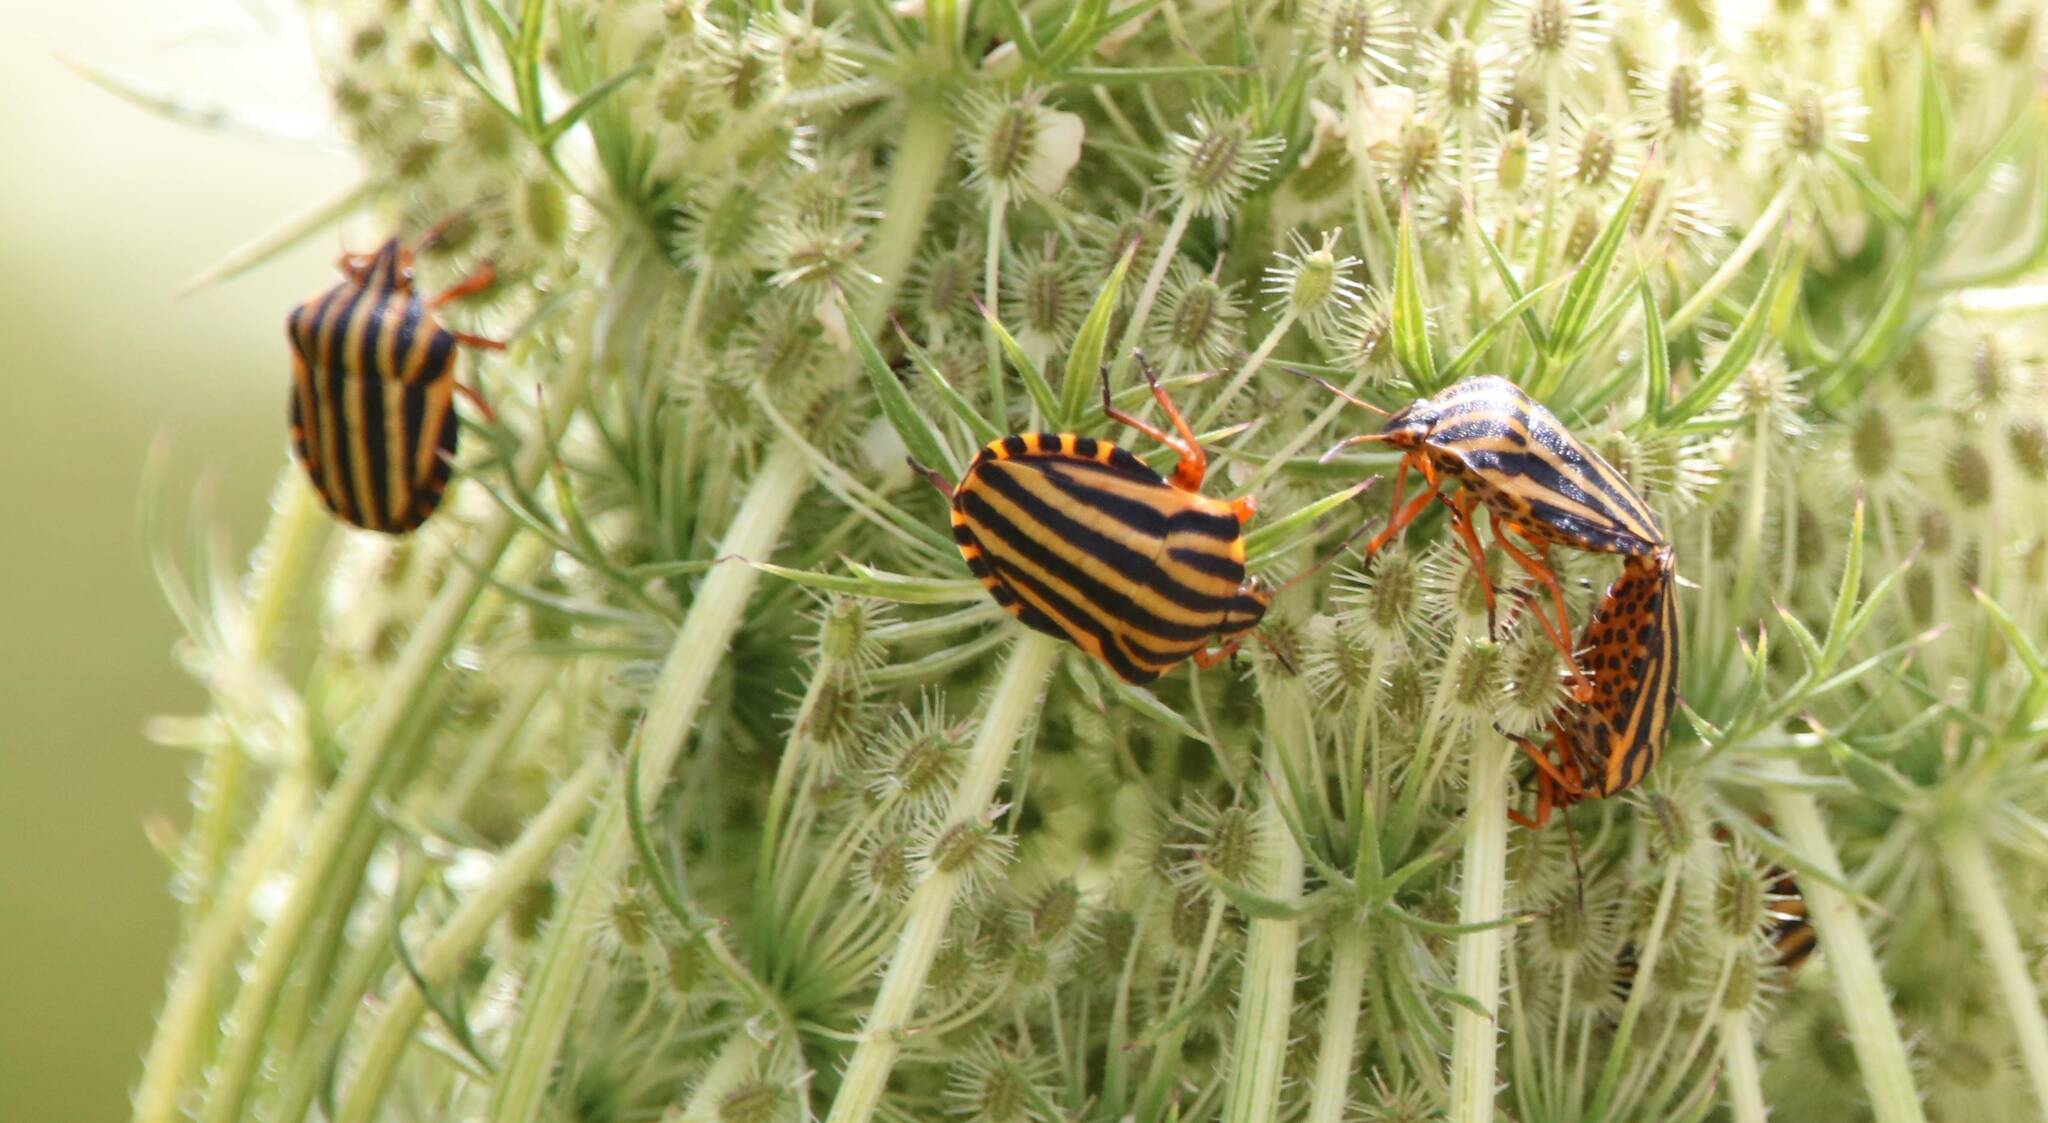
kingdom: Animalia
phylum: Arthropoda
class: Insecta
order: Hemiptera
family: Pentatomidae
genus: Graphosoma
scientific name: Graphosoma lineatum
